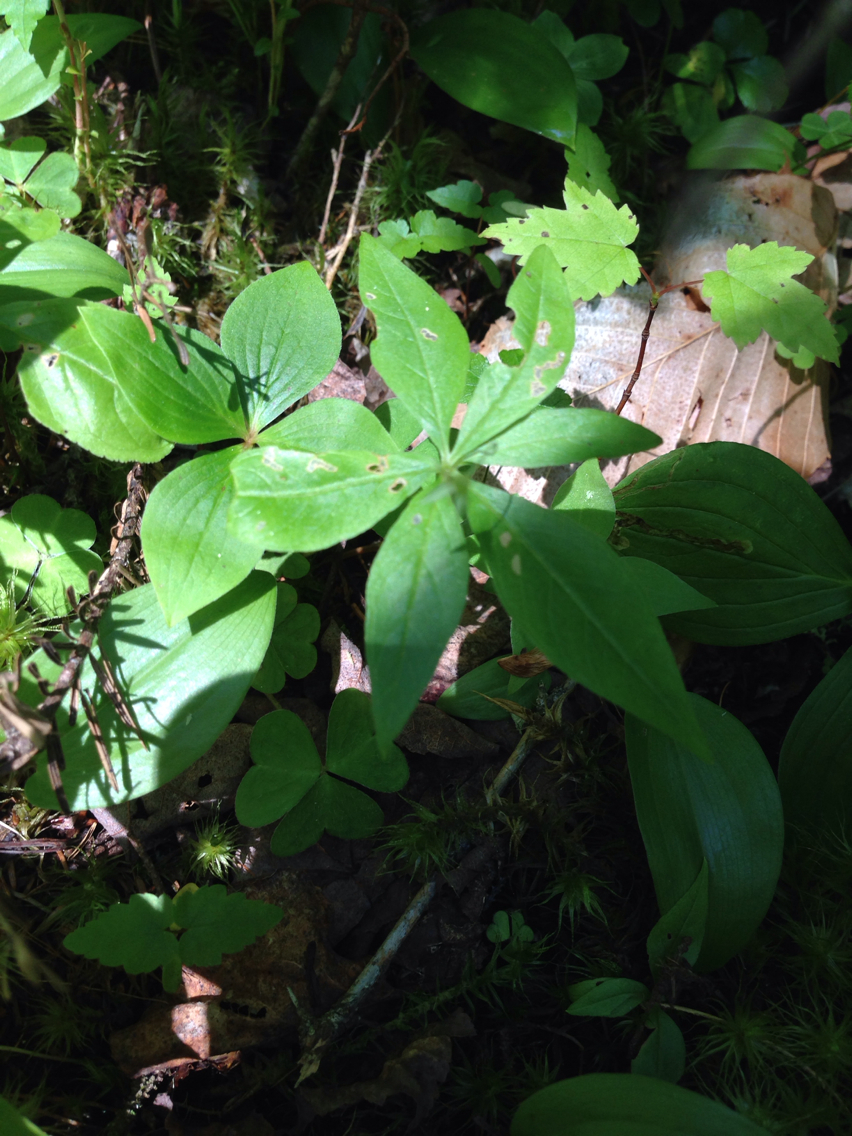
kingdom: Plantae
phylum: Tracheophyta
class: Magnoliopsida
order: Ericales
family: Primulaceae
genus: Lysimachia
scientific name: Lysimachia borealis
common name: American starflower
